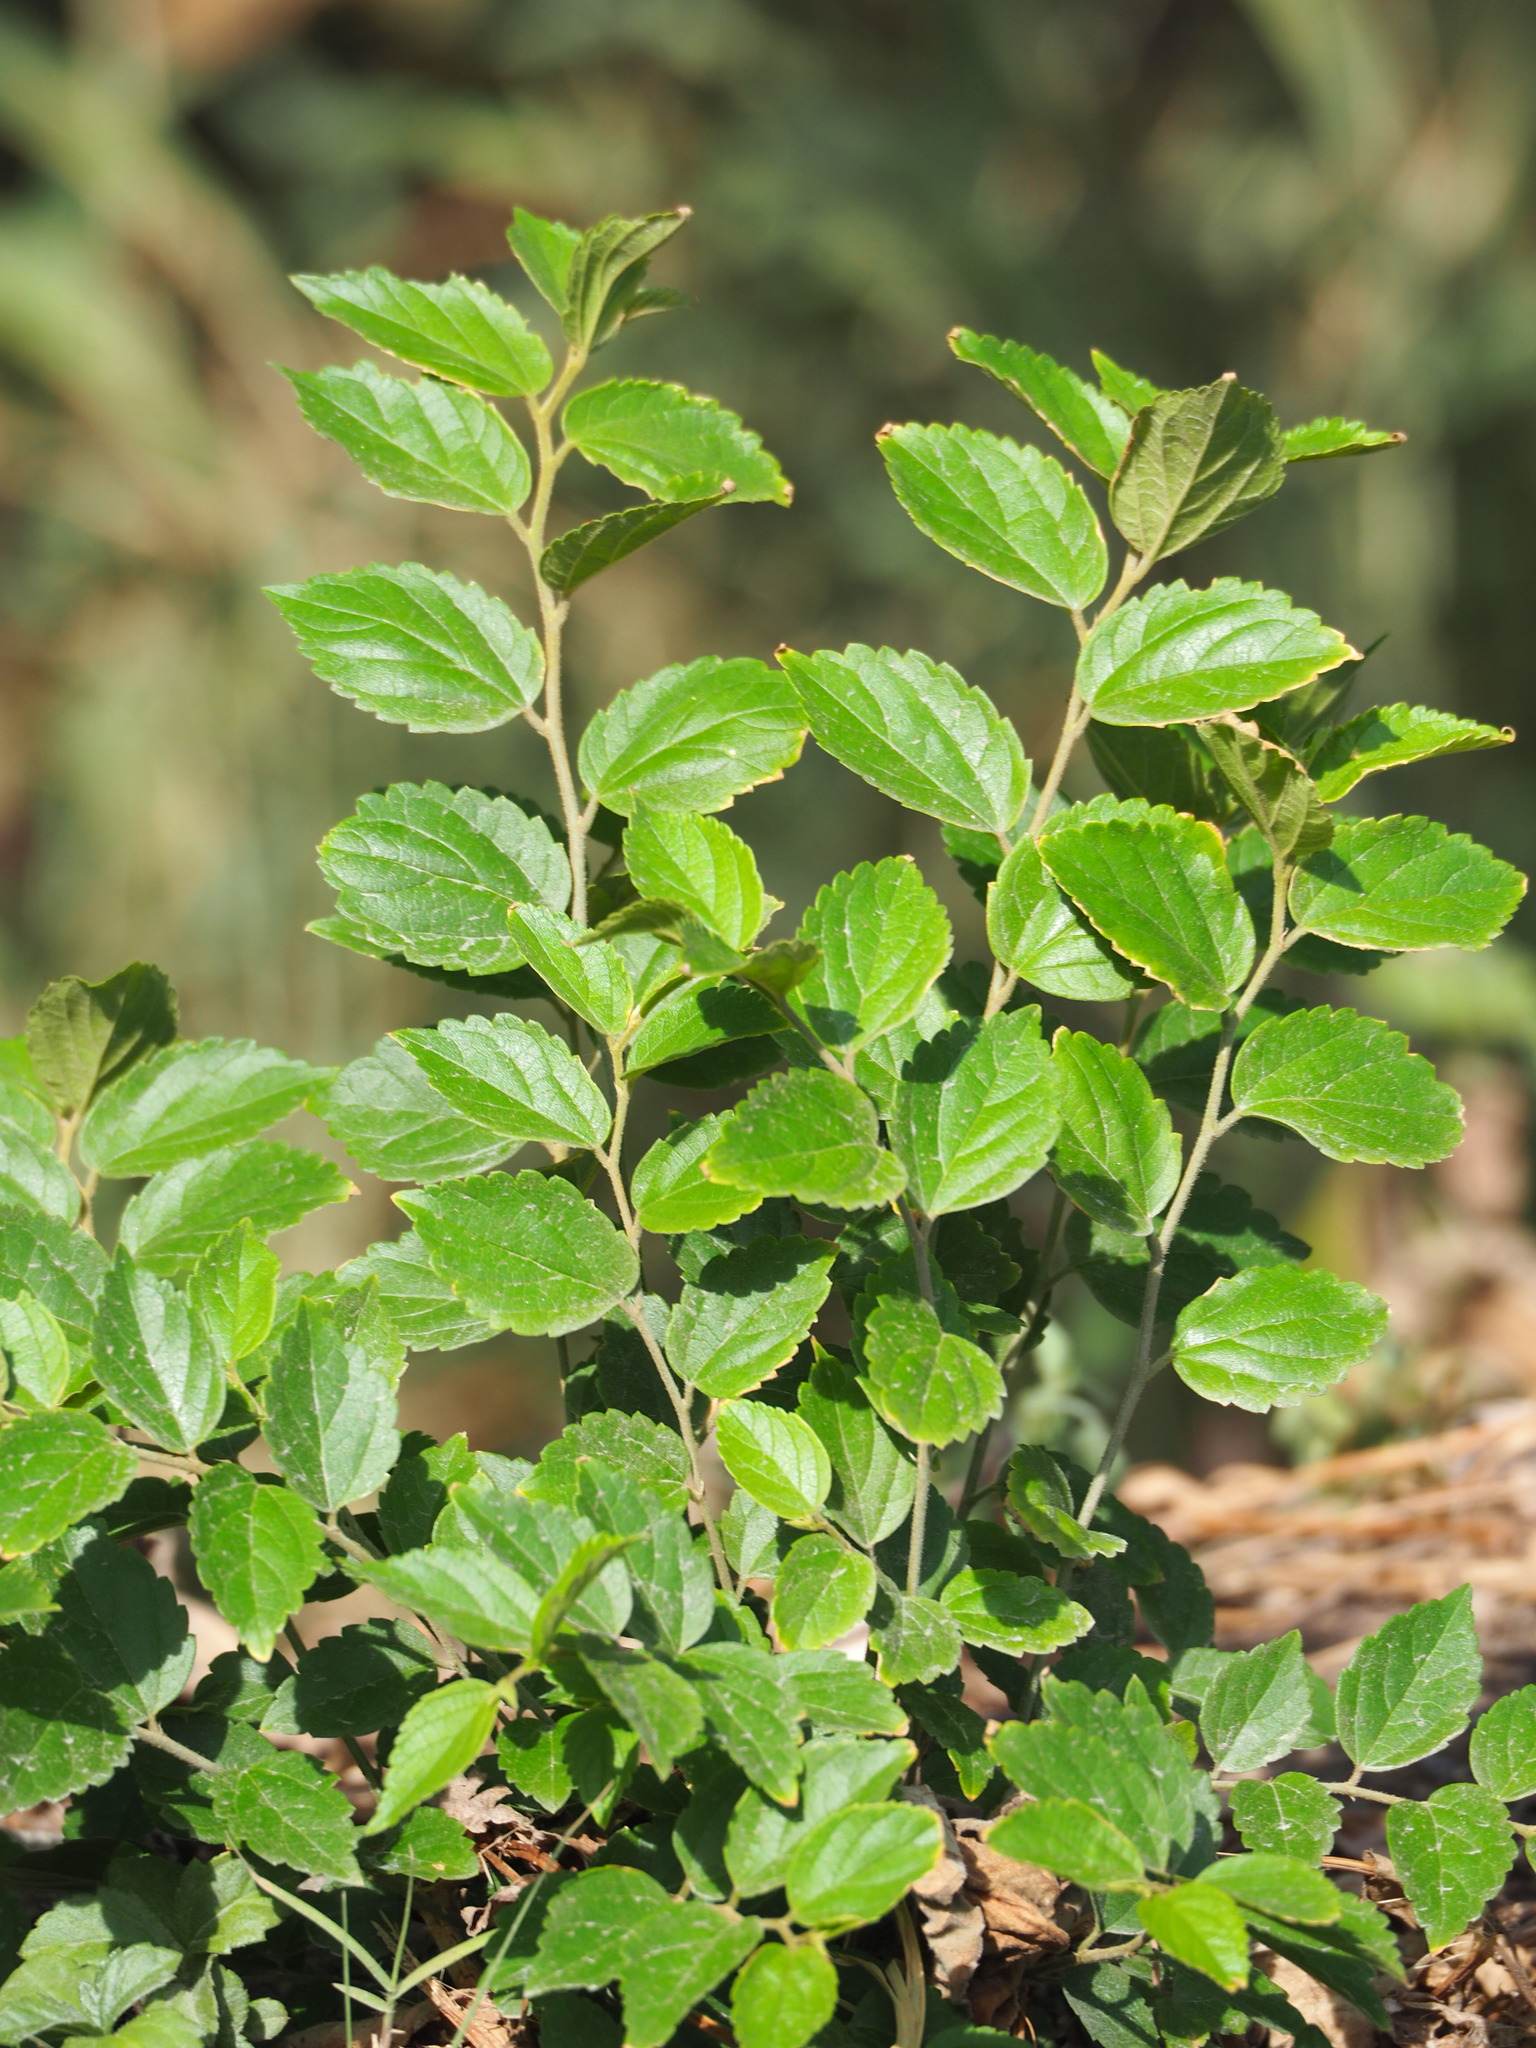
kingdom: Plantae
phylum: Tracheophyta
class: Magnoliopsida
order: Rosales
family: Cannabaceae
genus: Celtis
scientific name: Celtis sinensis
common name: Chinese hackberry
